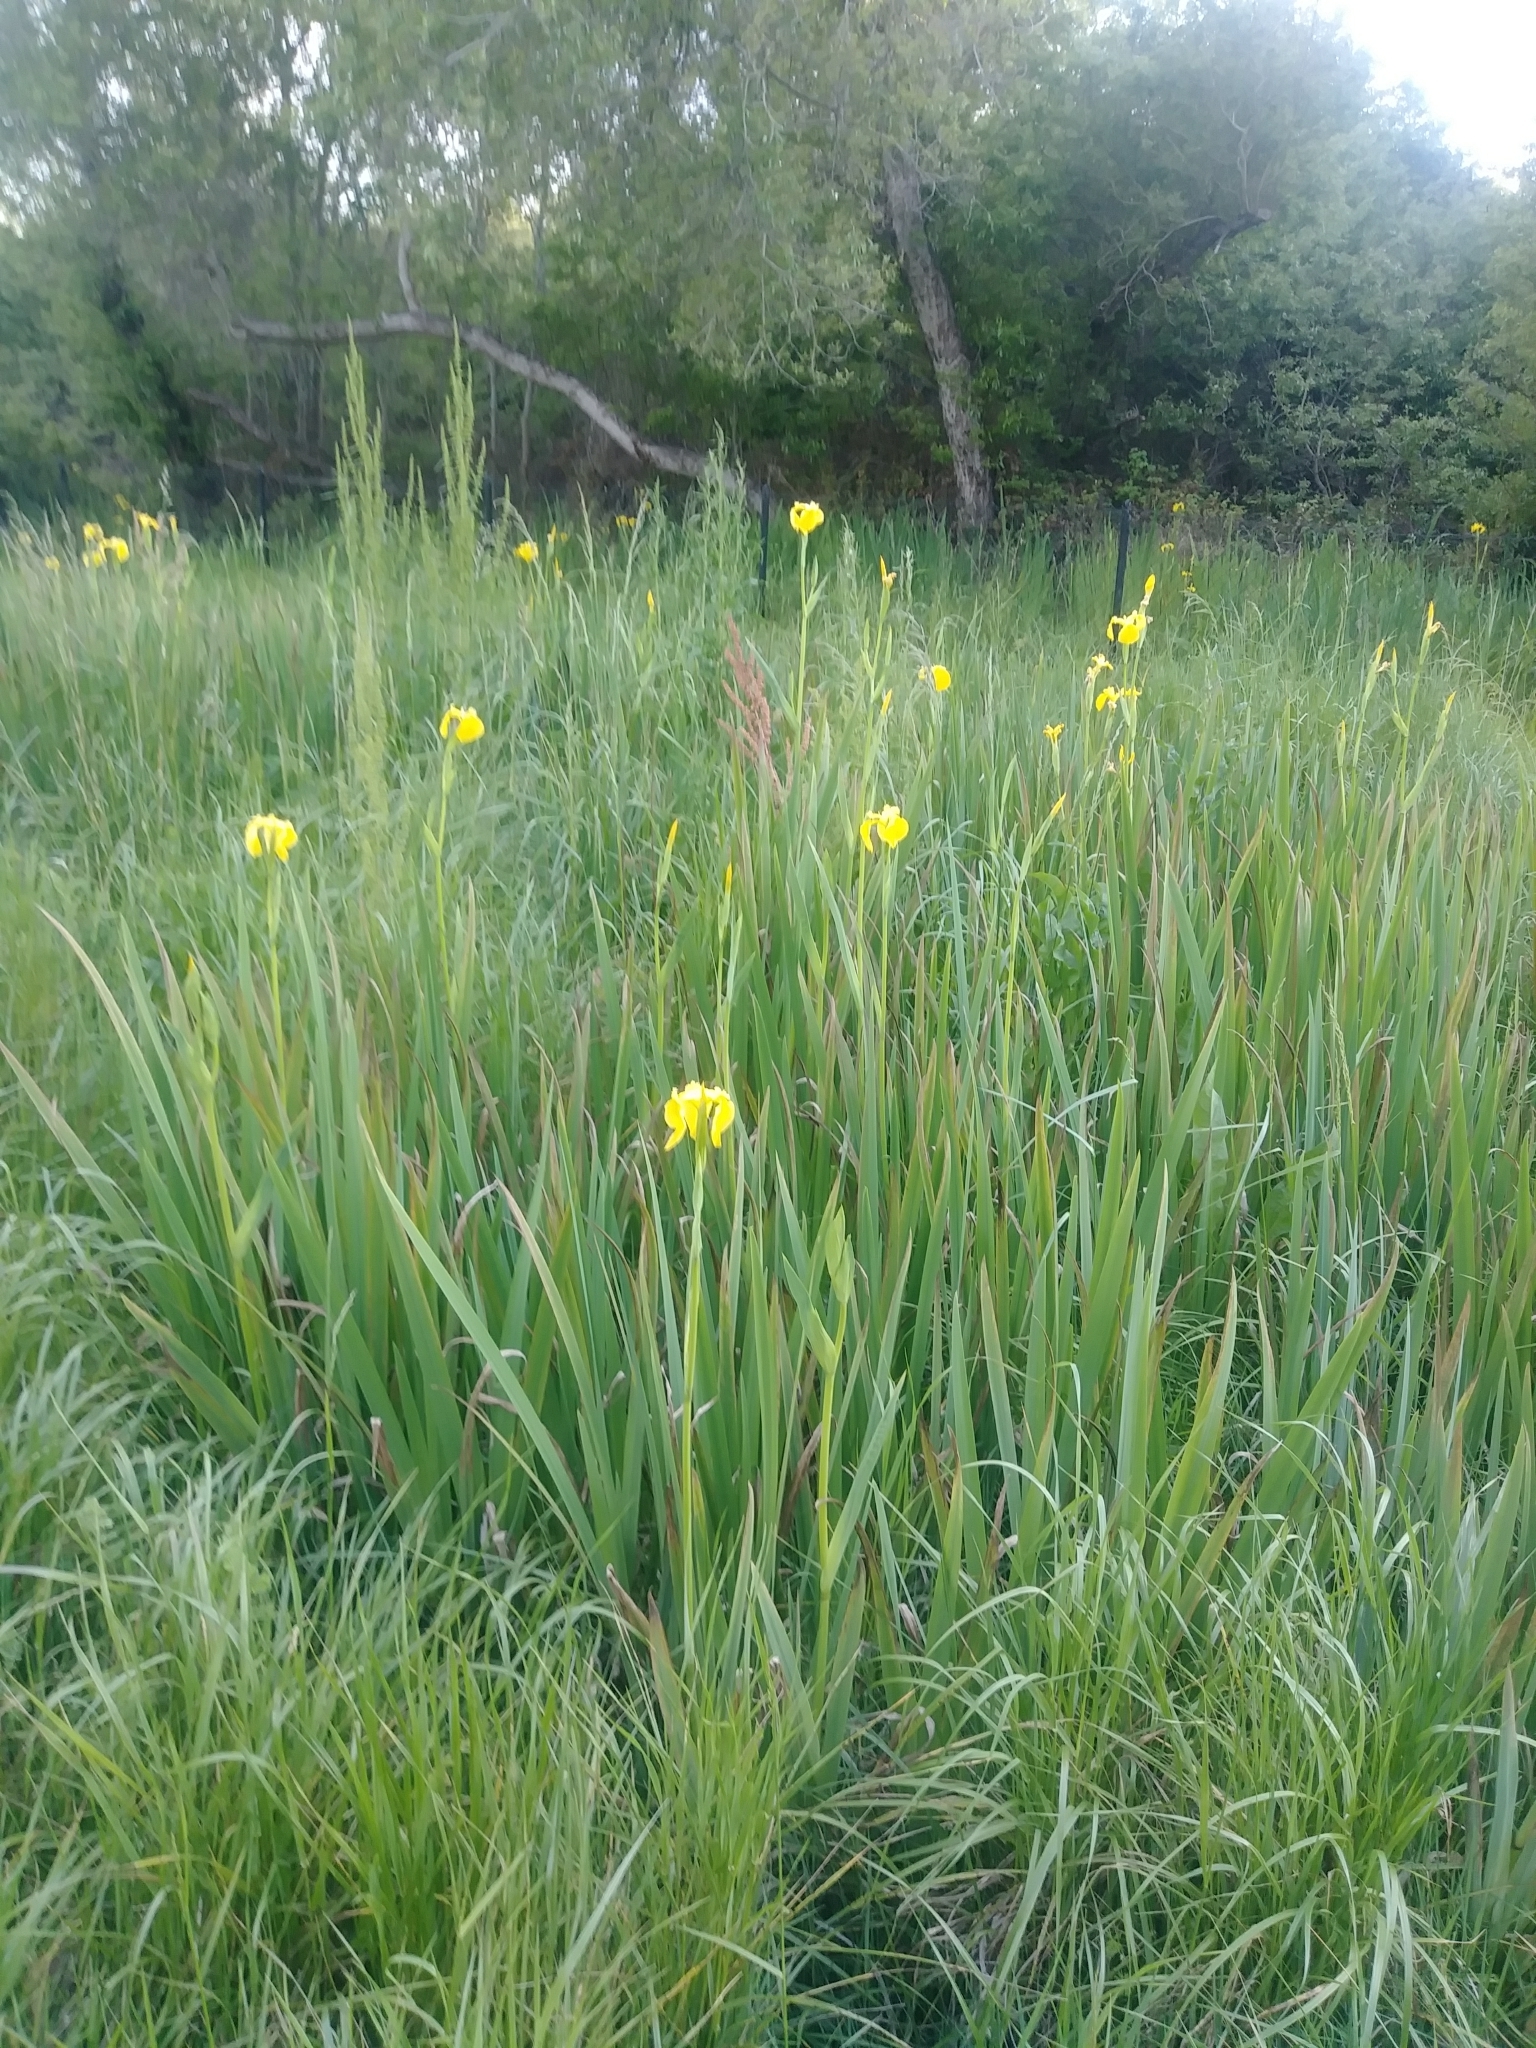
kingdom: Plantae
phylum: Tracheophyta
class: Liliopsida
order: Asparagales
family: Iridaceae
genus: Iris
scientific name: Iris pseudacorus
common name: Yellow flag
